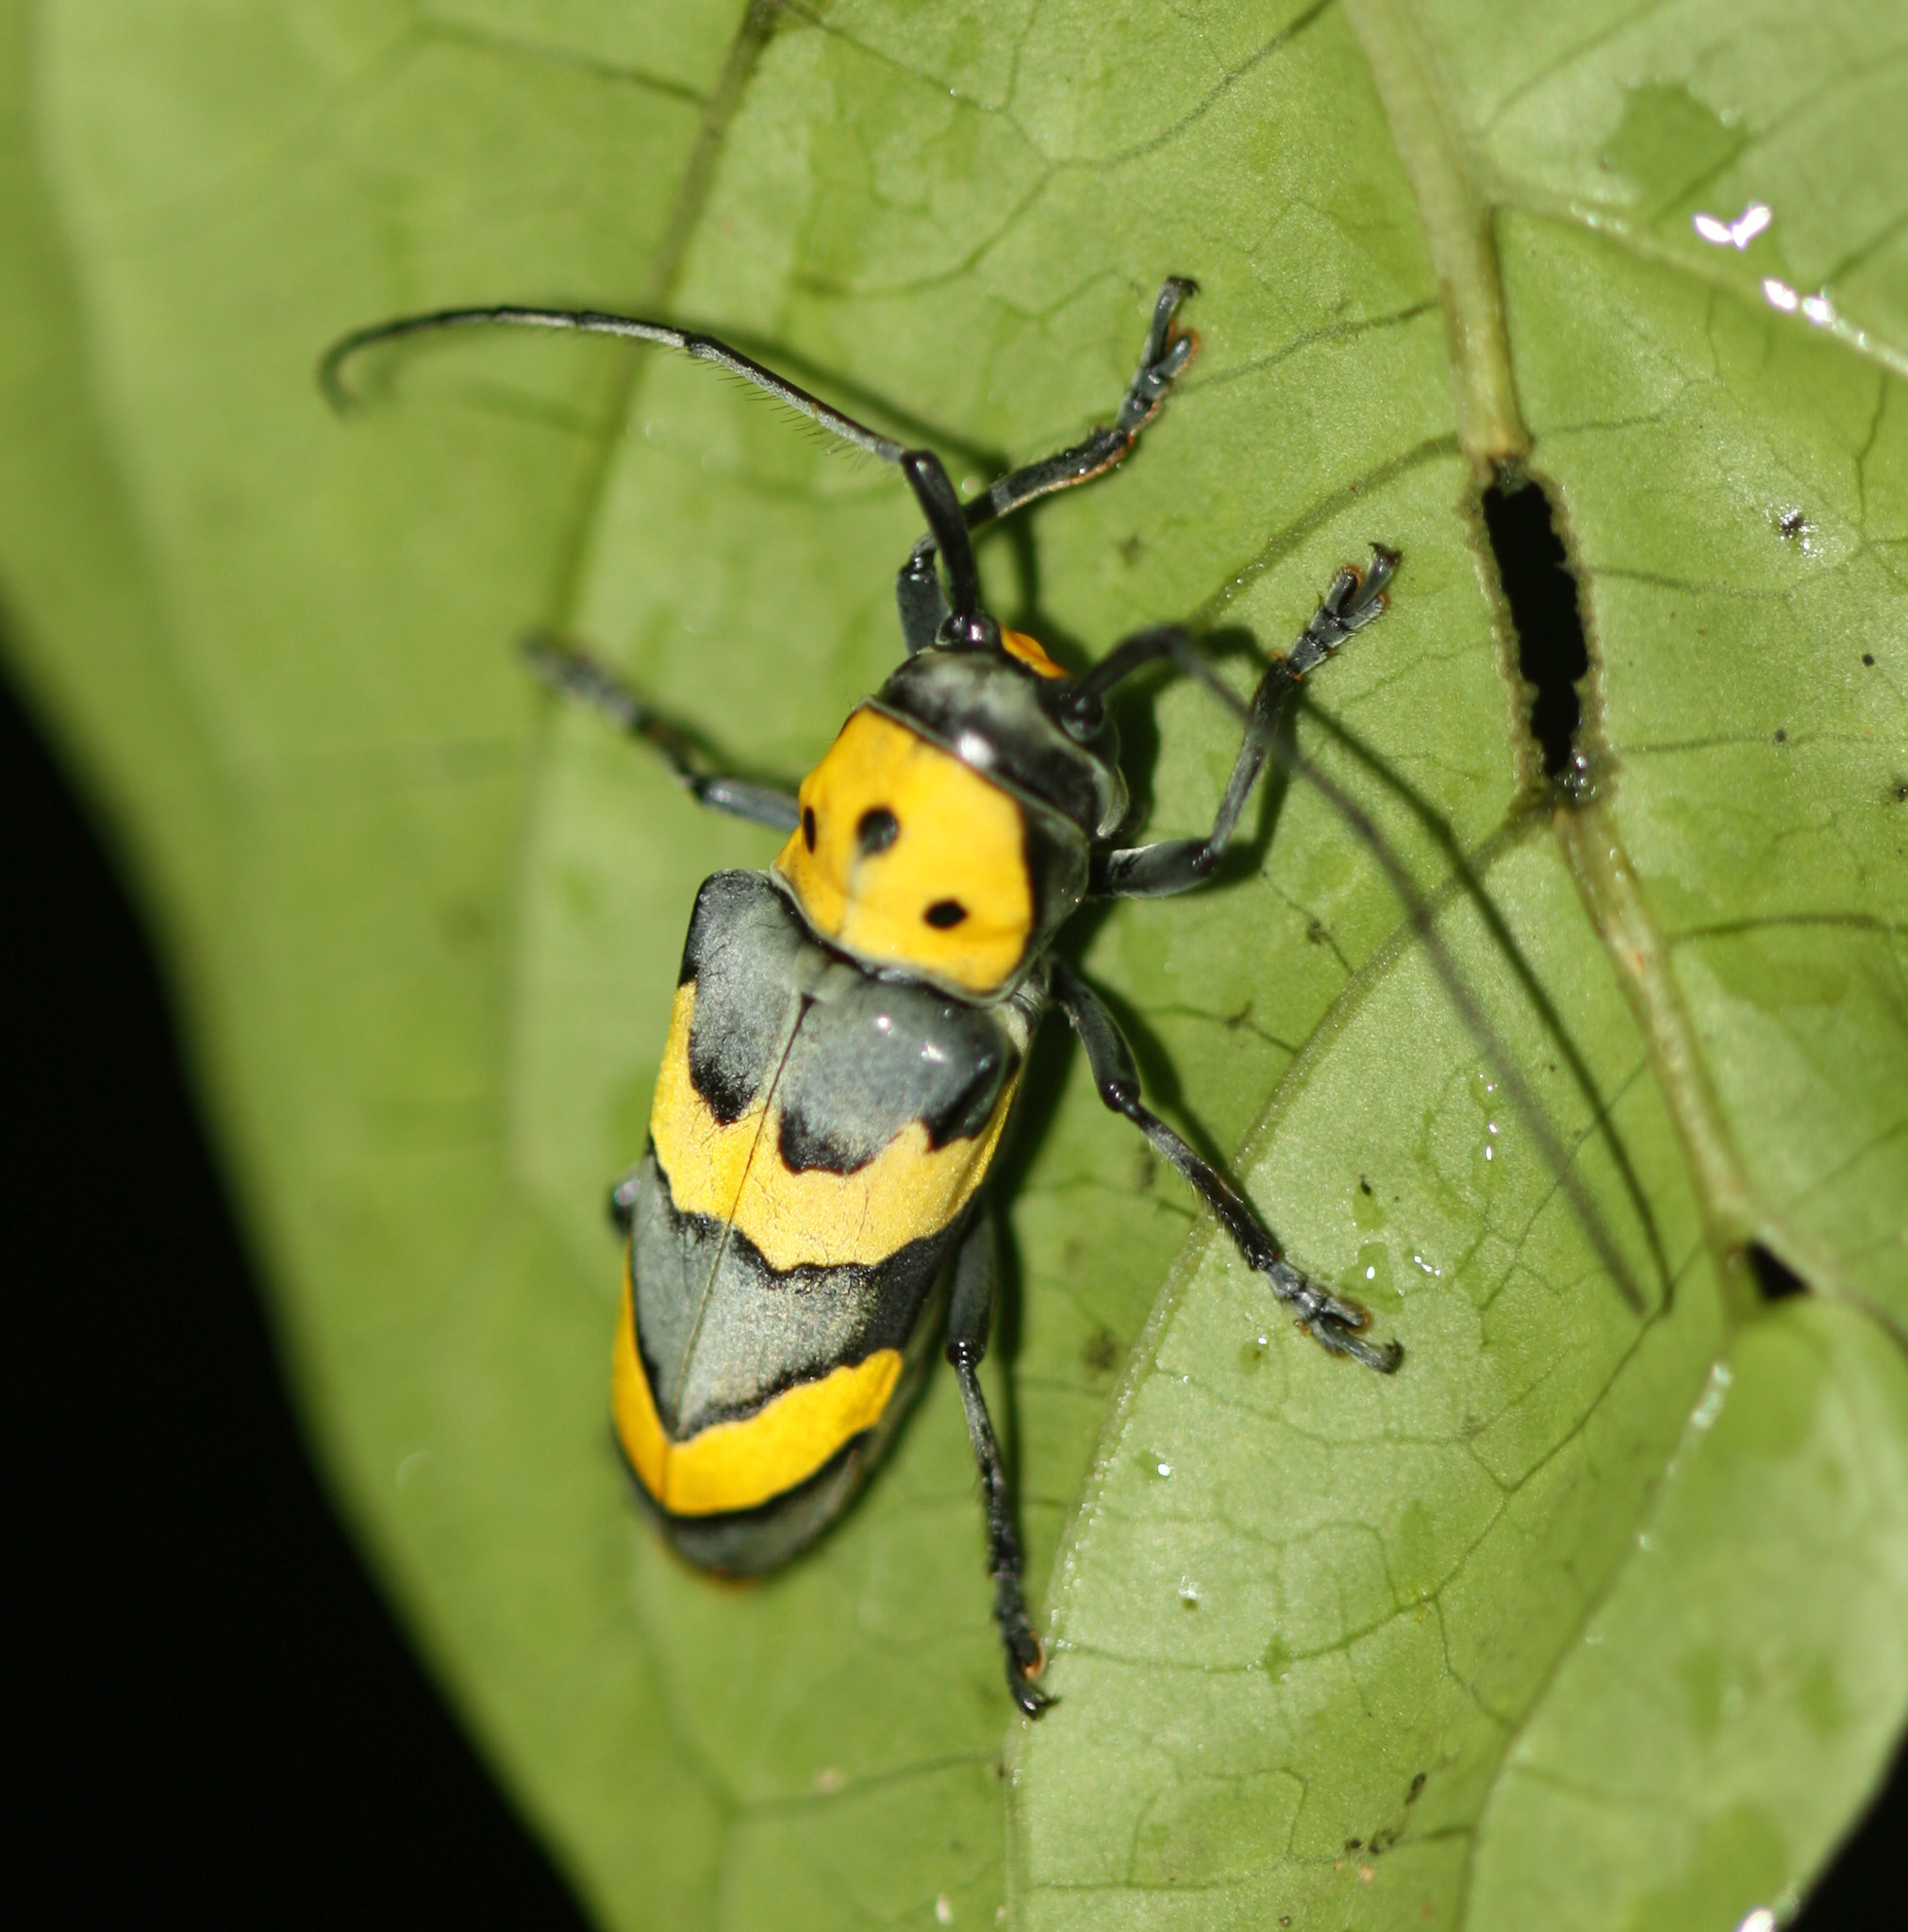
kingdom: Animalia
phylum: Arthropoda
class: Insecta
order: Coleoptera
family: Cerambycidae
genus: Oedudes
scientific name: Oedudes bifasciatus
